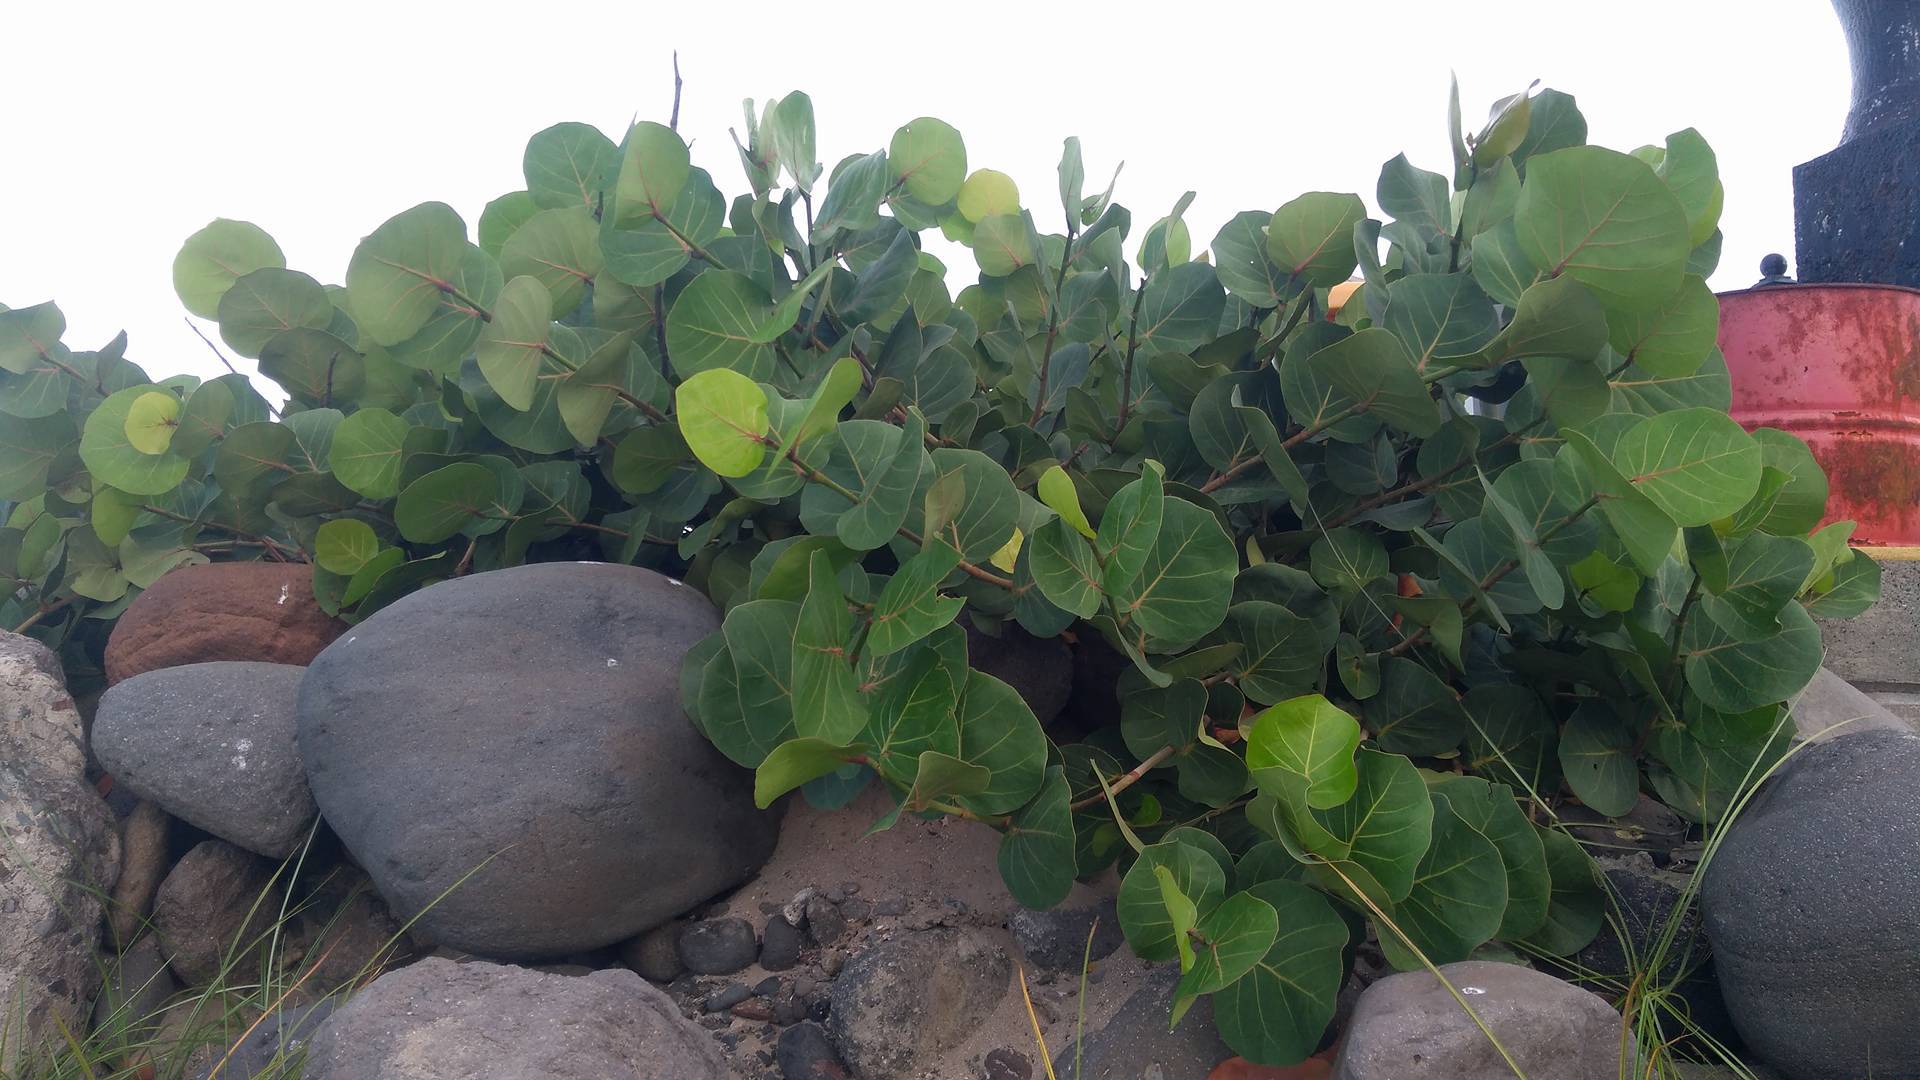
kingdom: Plantae
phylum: Tracheophyta
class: Magnoliopsida
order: Caryophyllales
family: Polygonaceae
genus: Coccoloba
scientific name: Coccoloba uvifera
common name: Seagrape
